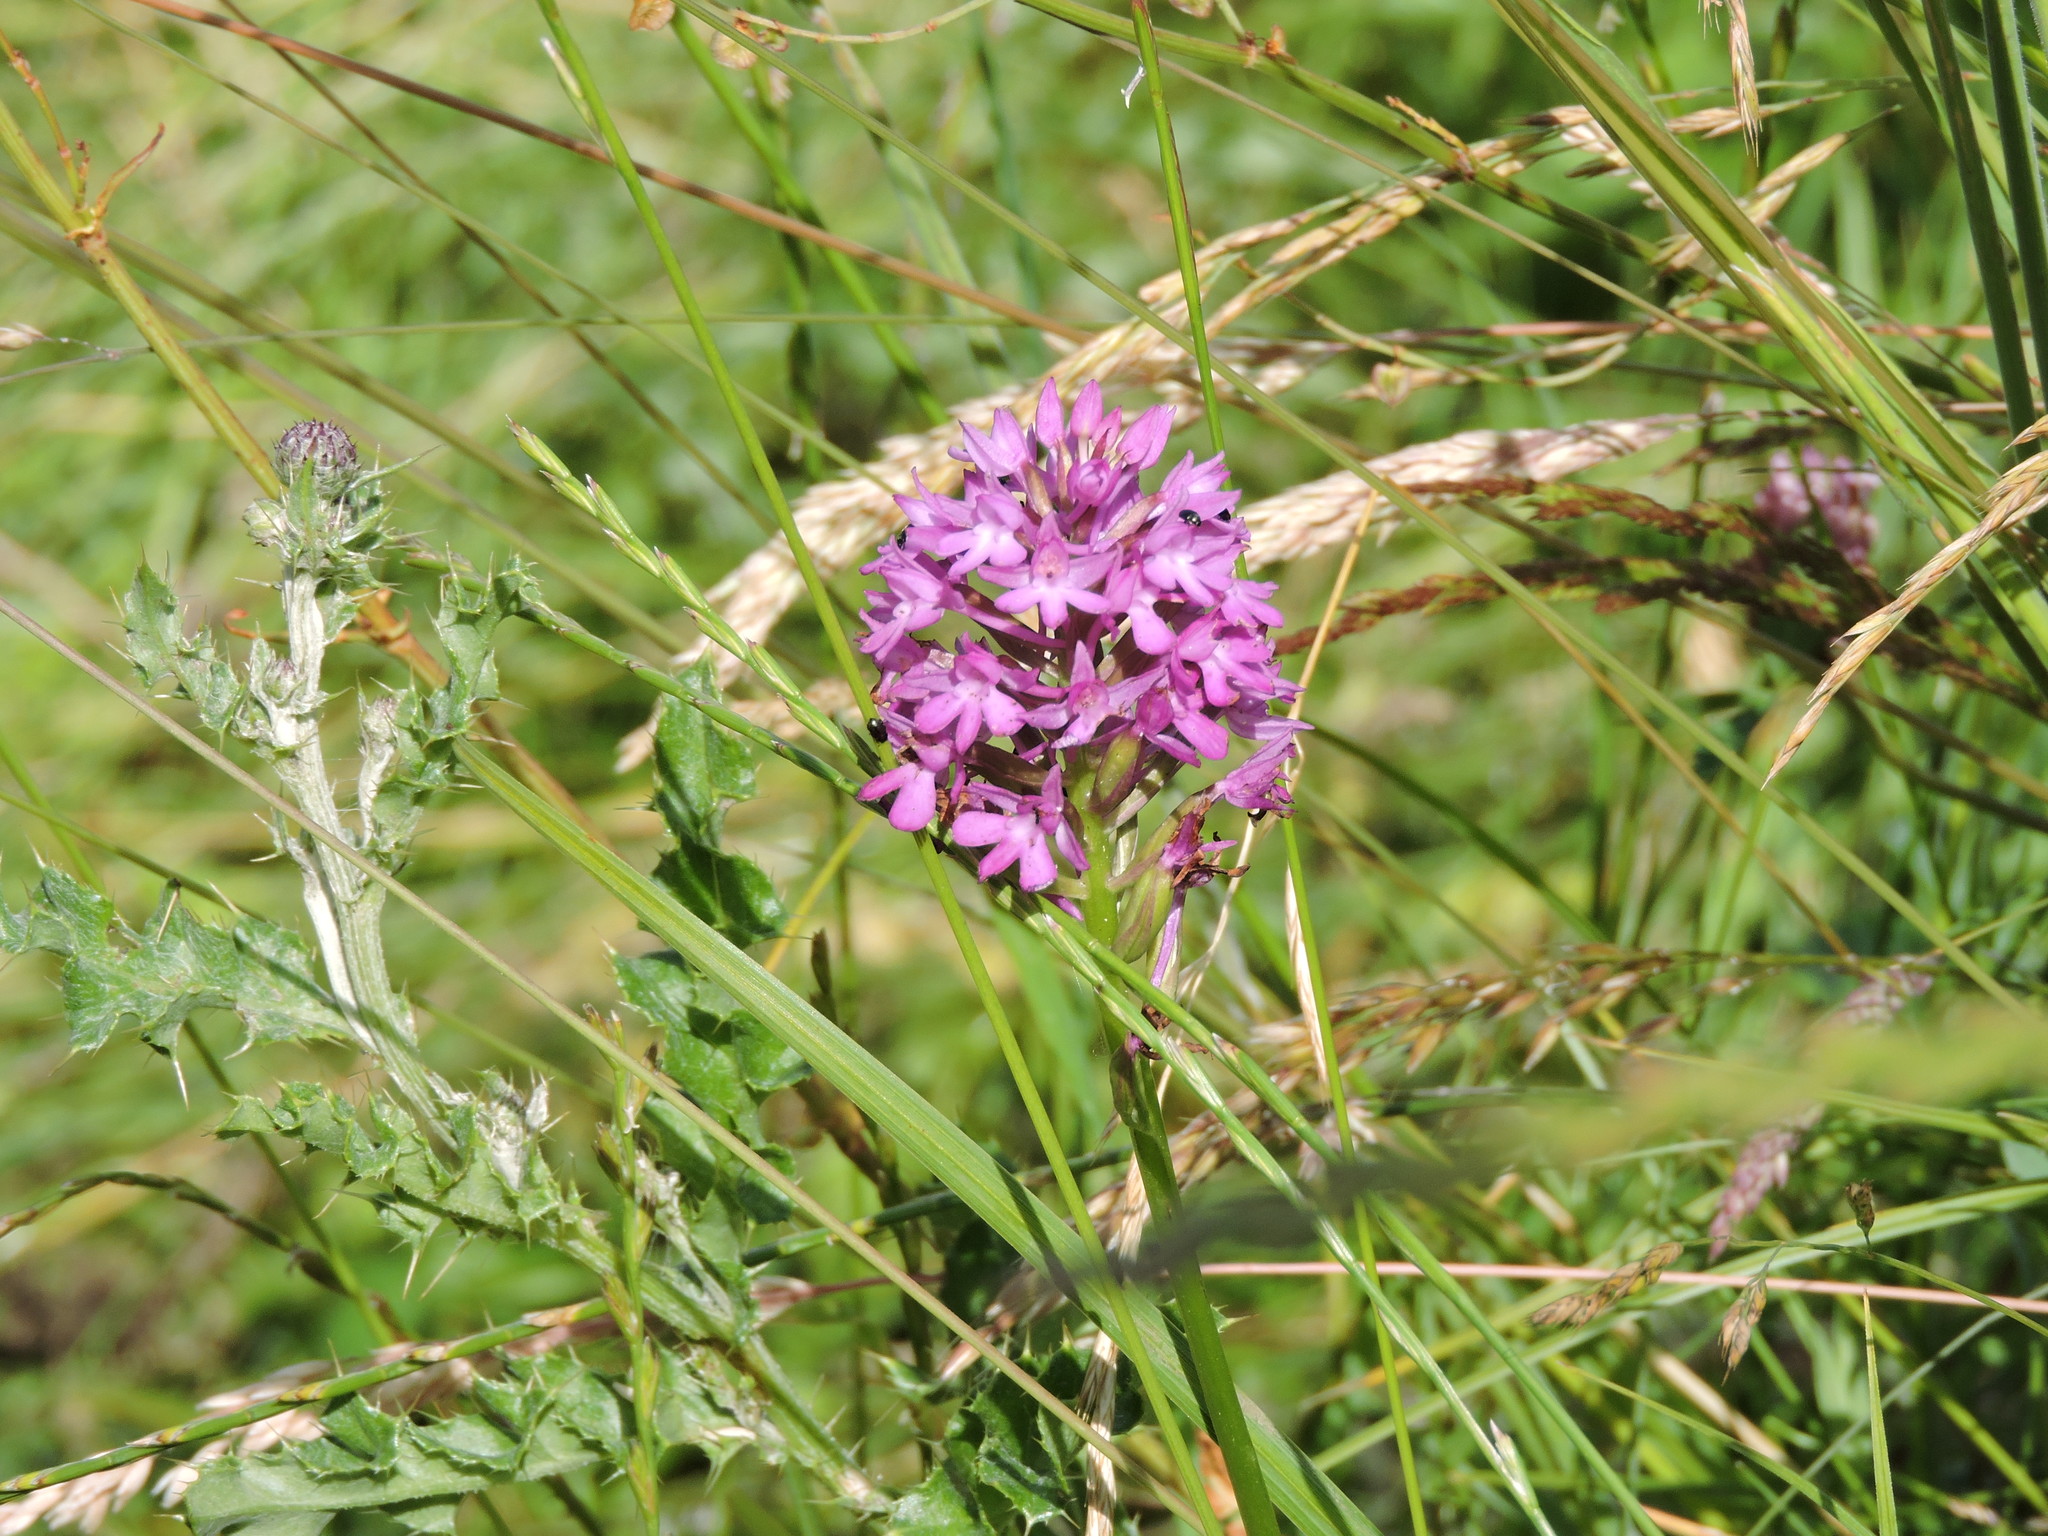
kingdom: Plantae
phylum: Tracheophyta
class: Liliopsida
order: Asparagales
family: Orchidaceae
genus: Anacamptis
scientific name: Anacamptis pyramidalis
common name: Pyramidal orchid
